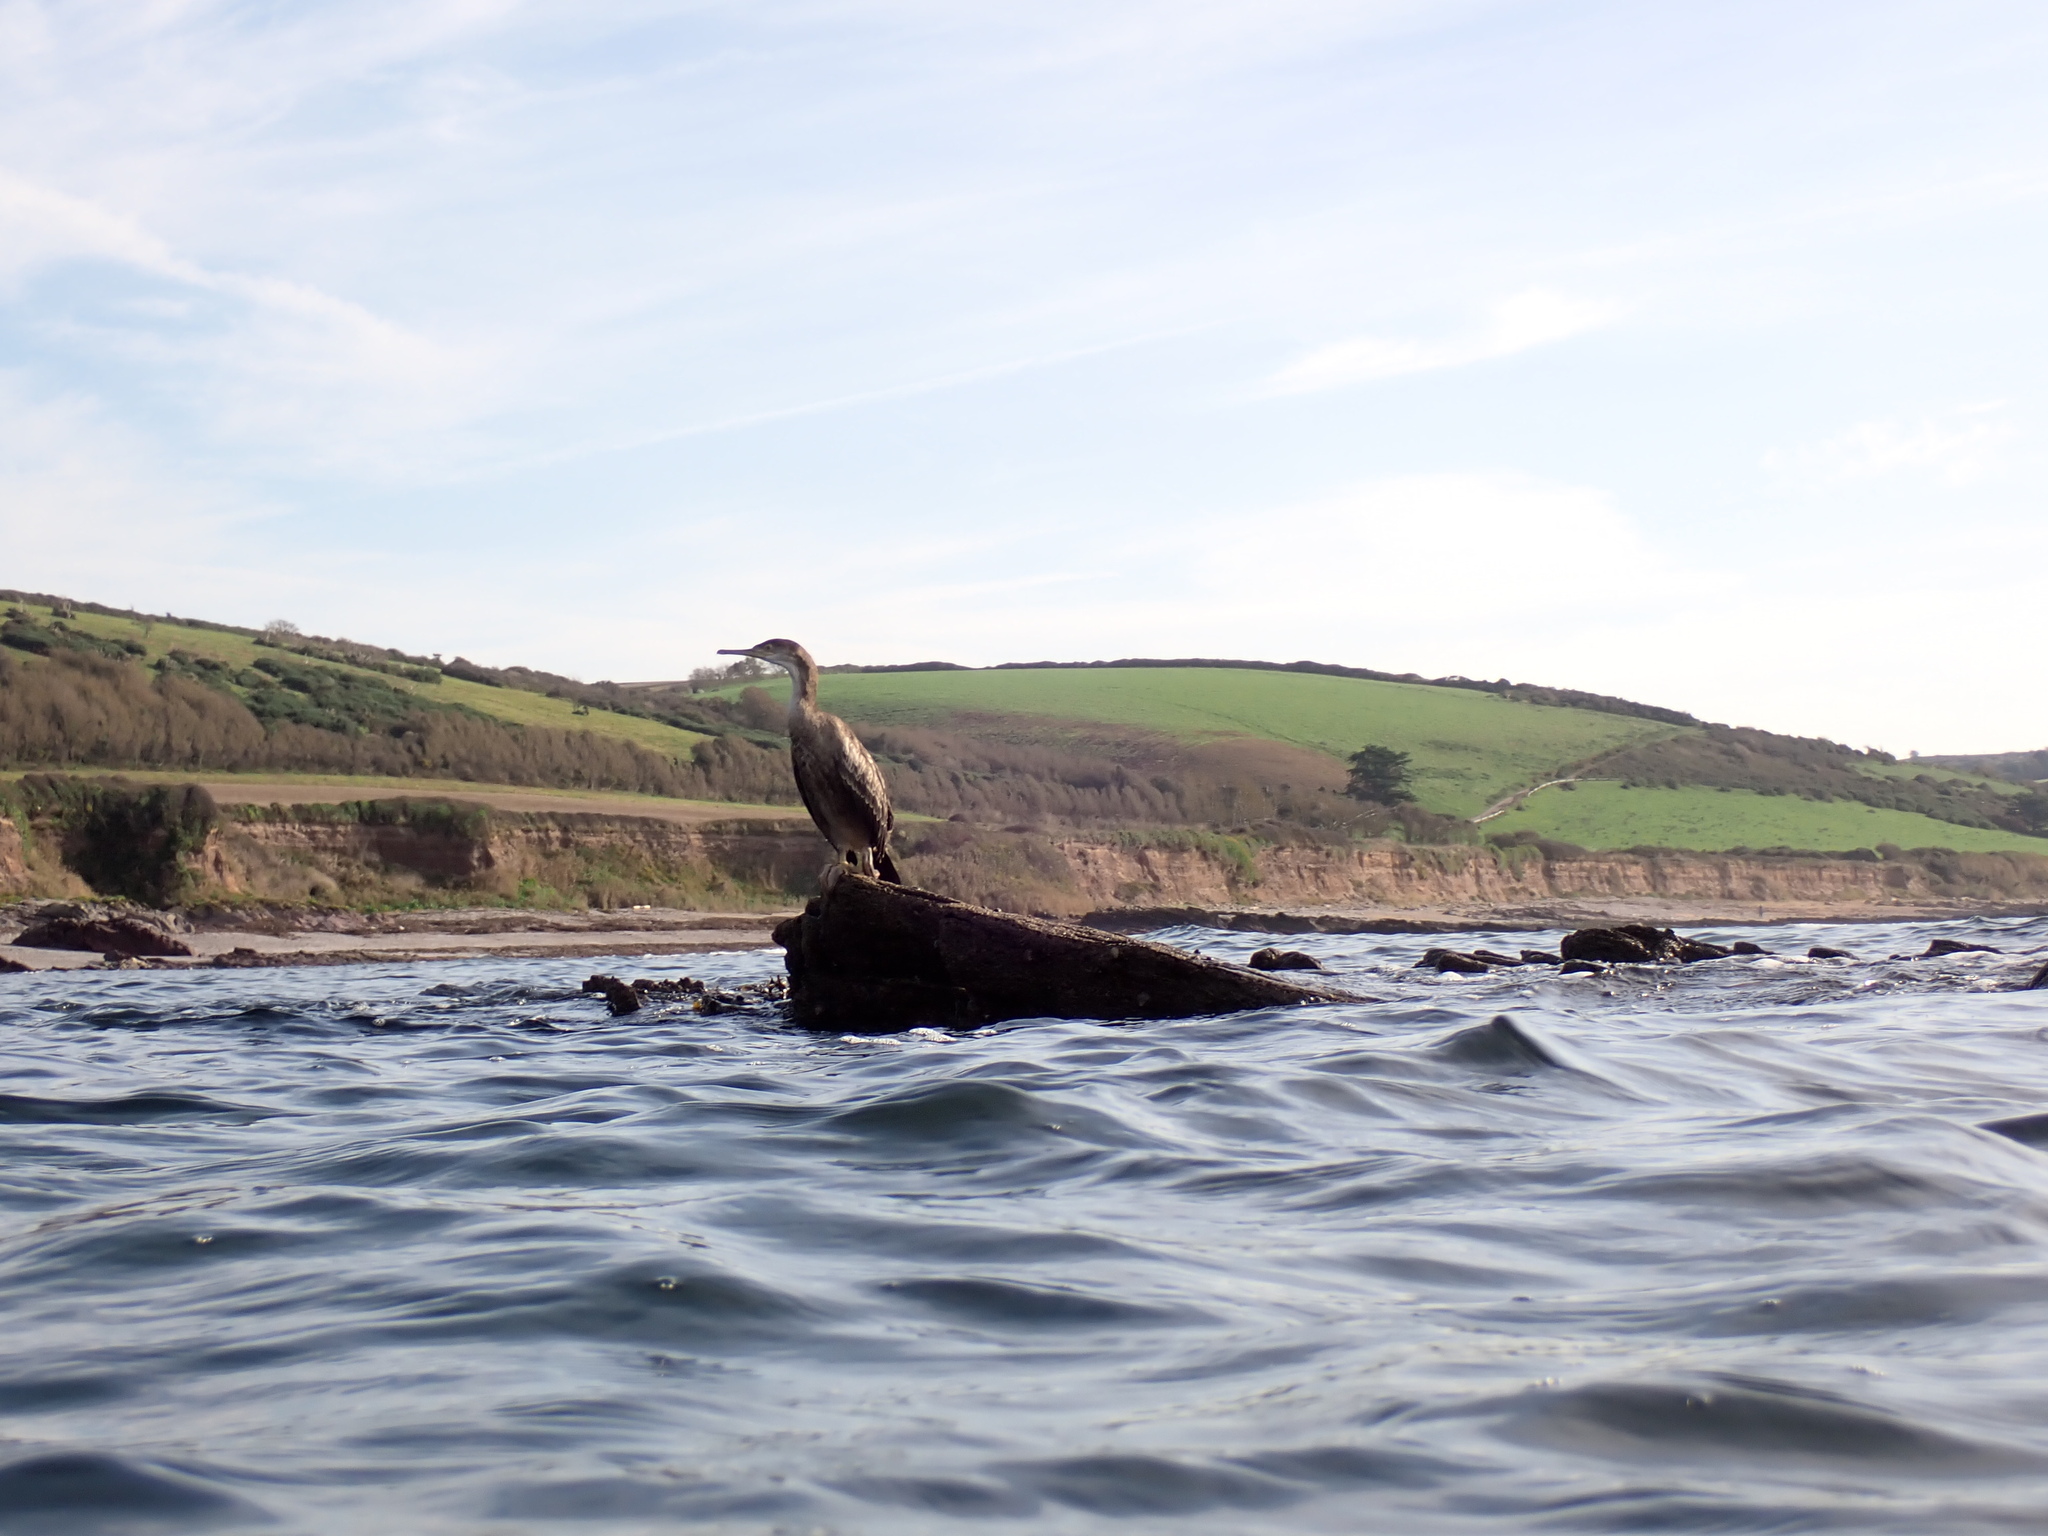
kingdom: Animalia
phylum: Chordata
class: Aves
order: Suliformes
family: Phalacrocoracidae
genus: Phalacrocorax
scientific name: Phalacrocorax carbo
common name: Great cormorant
